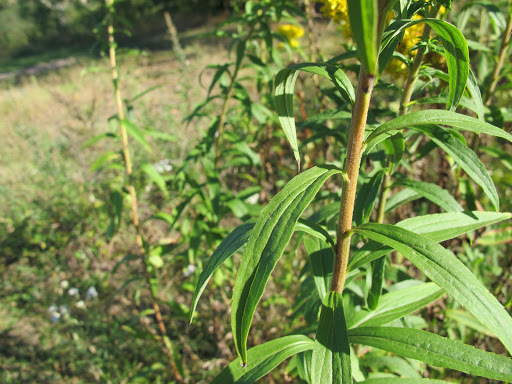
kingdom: Plantae
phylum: Tracheophyta
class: Magnoliopsida
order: Asterales
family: Asteraceae
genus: Solidago
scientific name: Solidago canadensis
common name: Canada goldenrod
